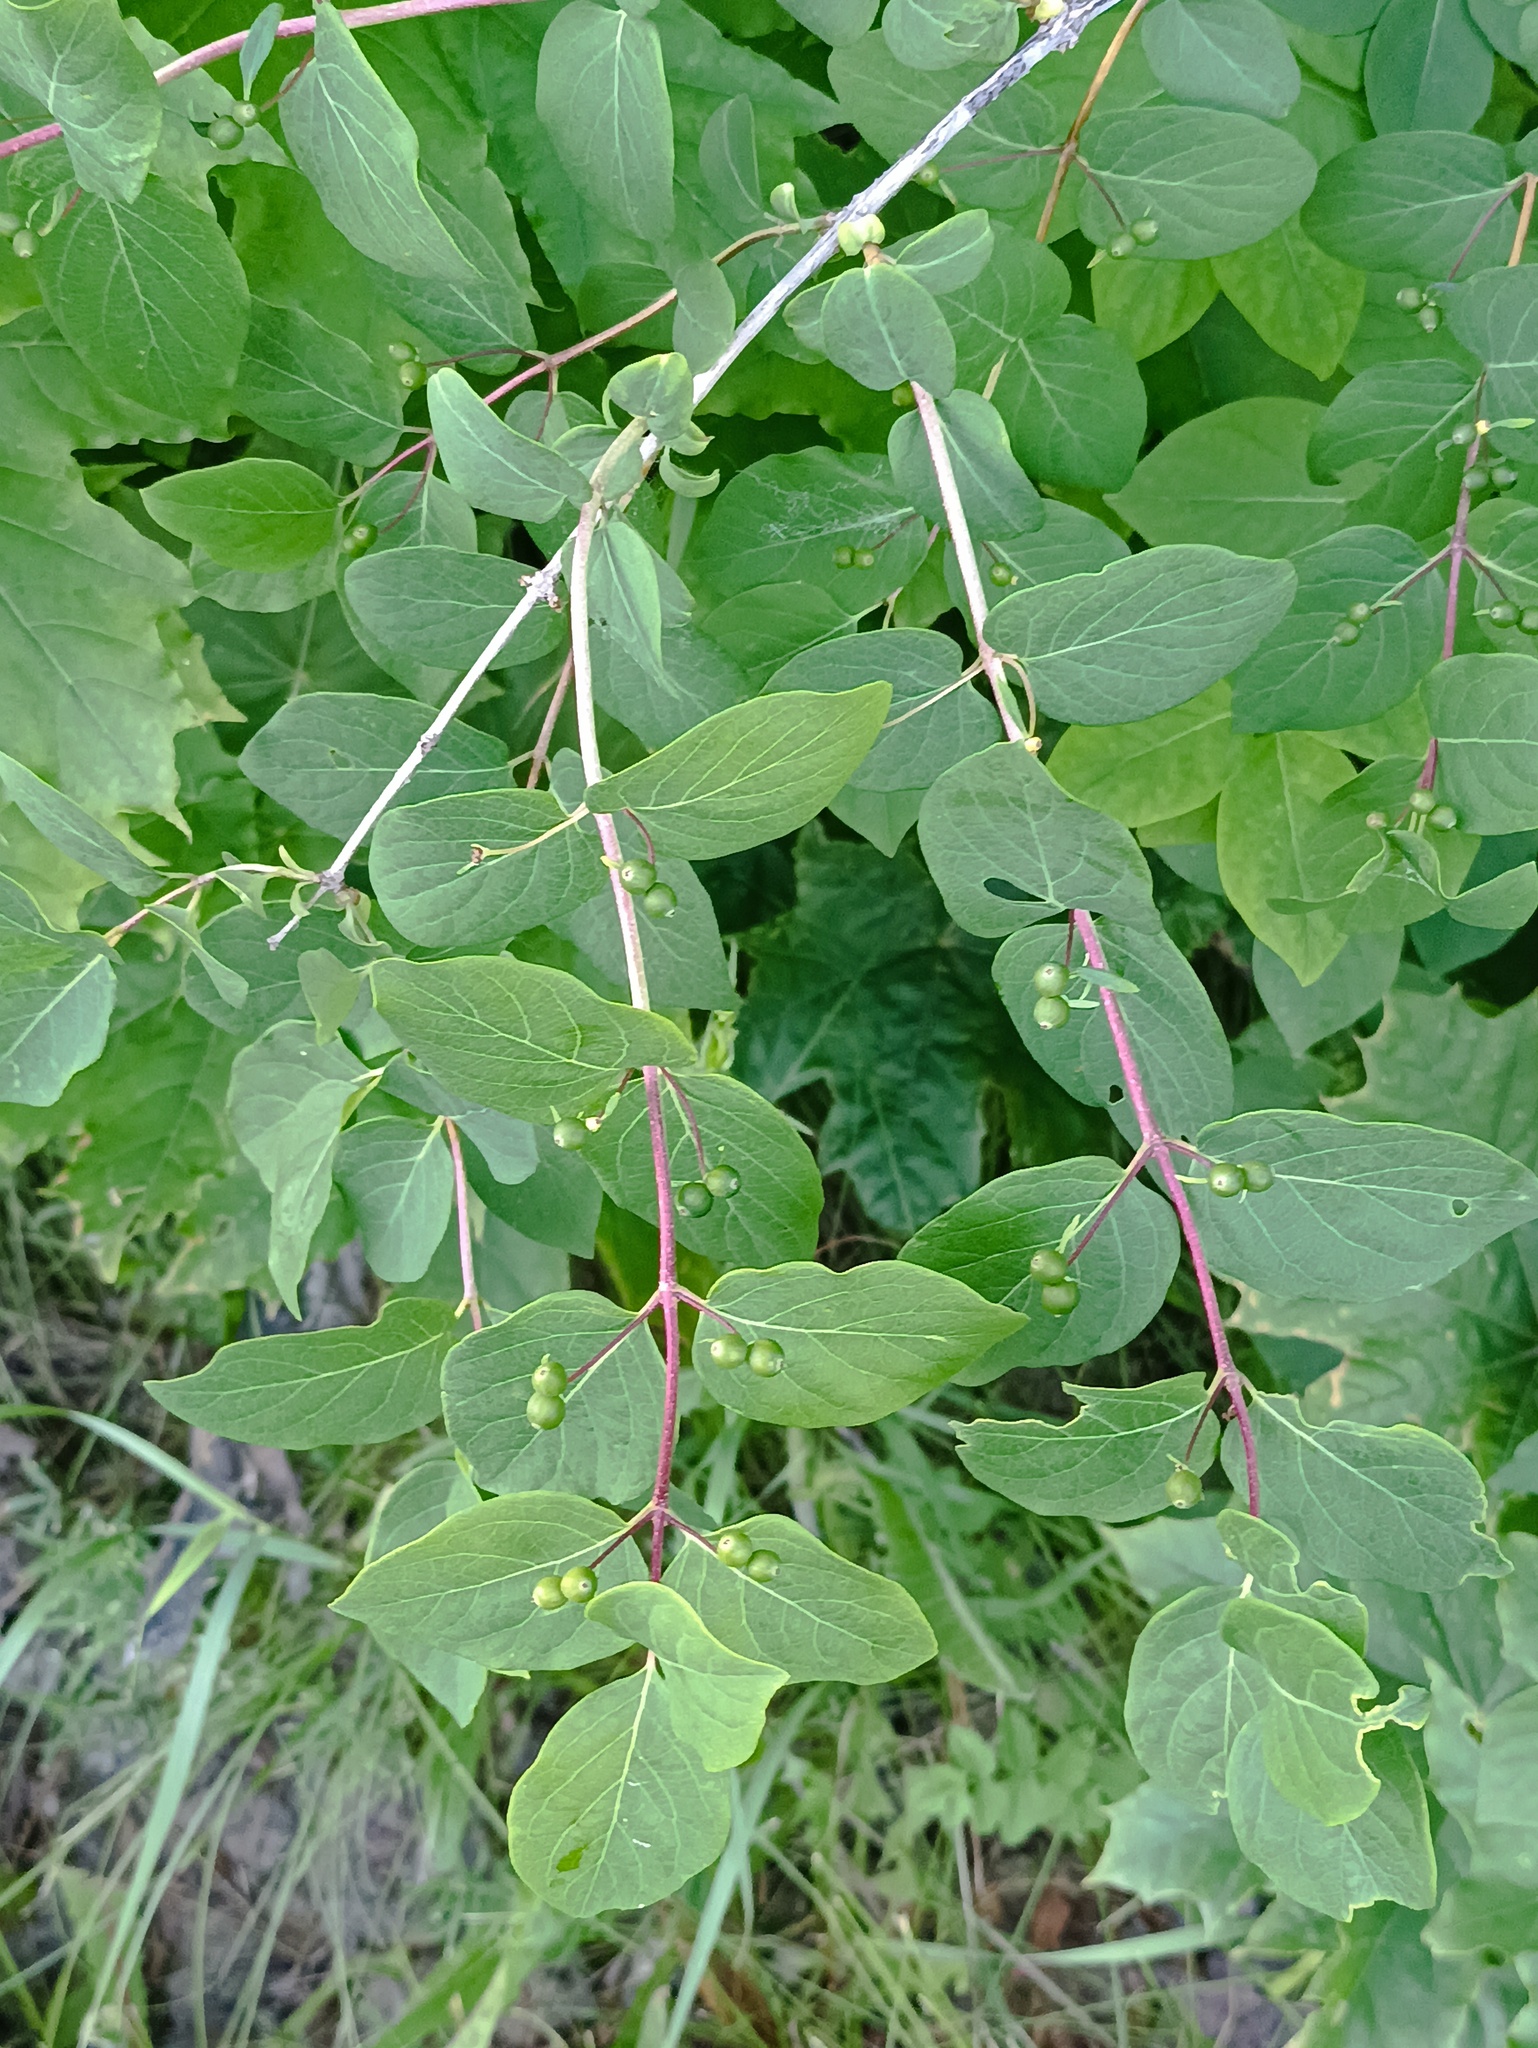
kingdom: Plantae
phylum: Tracheophyta
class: Magnoliopsida
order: Dipsacales
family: Caprifoliaceae
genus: Lonicera
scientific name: Lonicera tatarica
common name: Tatarian honeysuckle
